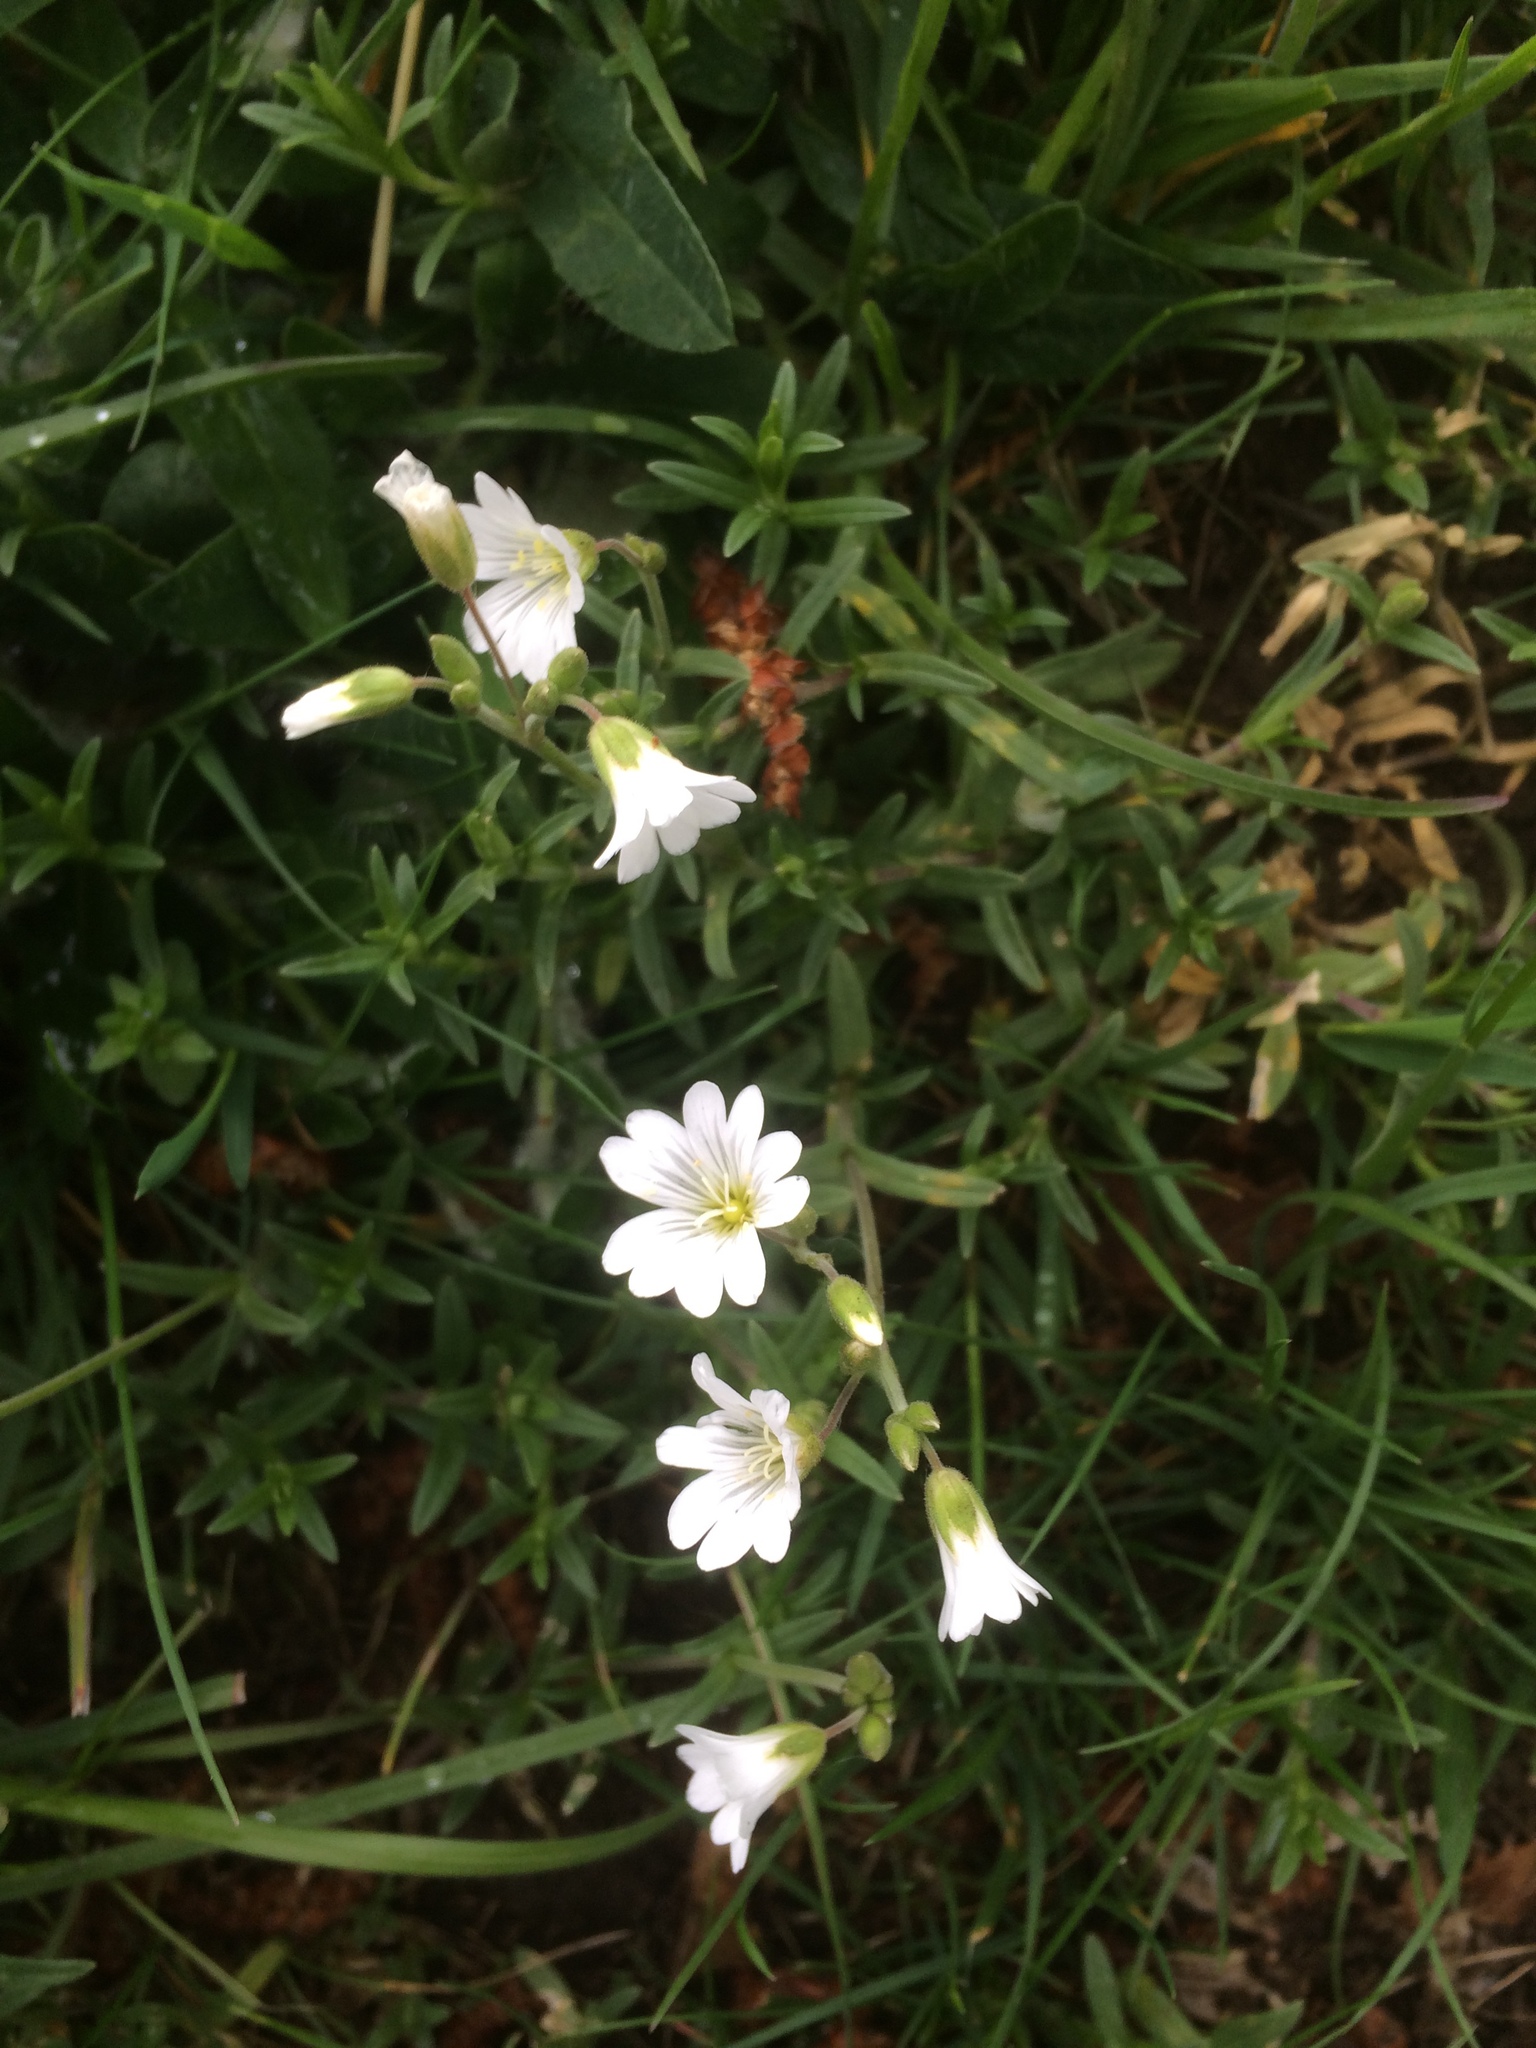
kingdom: Plantae
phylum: Tracheophyta
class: Magnoliopsida
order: Caryophyllales
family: Caryophyllaceae
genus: Cerastium
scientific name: Cerastium arvense
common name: Field mouse-ear
